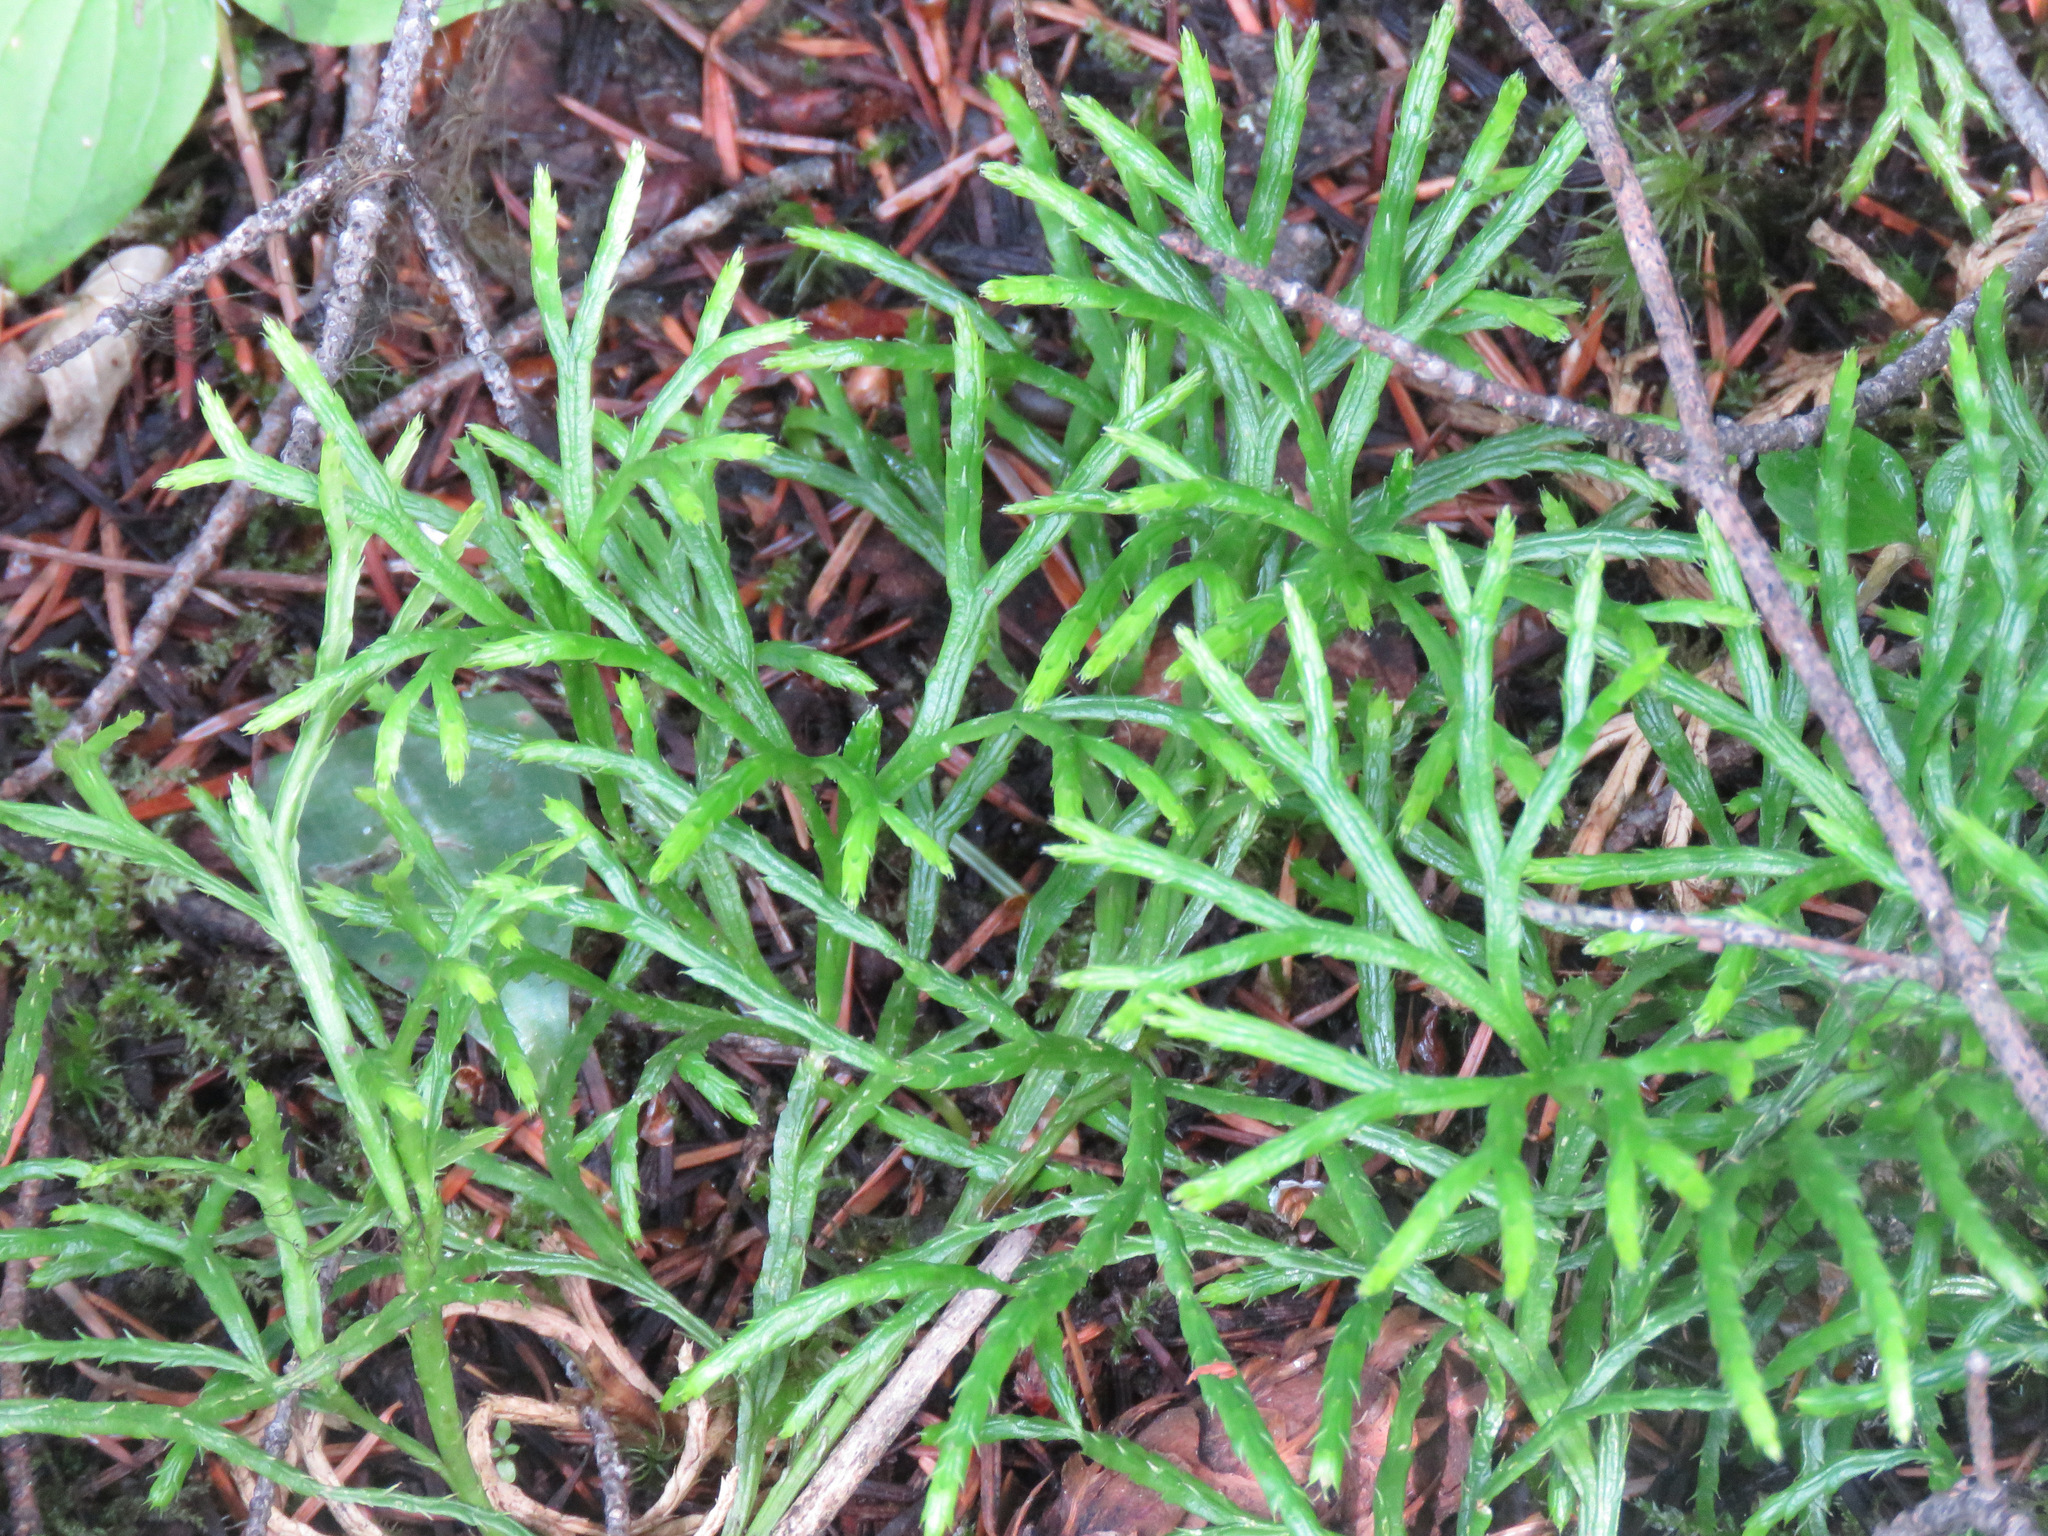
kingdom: Plantae
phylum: Tracheophyta
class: Lycopodiopsida
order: Lycopodiales
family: Lycopodiaceae
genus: Diphasiastrum
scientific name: Diphasiastrum complanatum
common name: Northern running-pine
